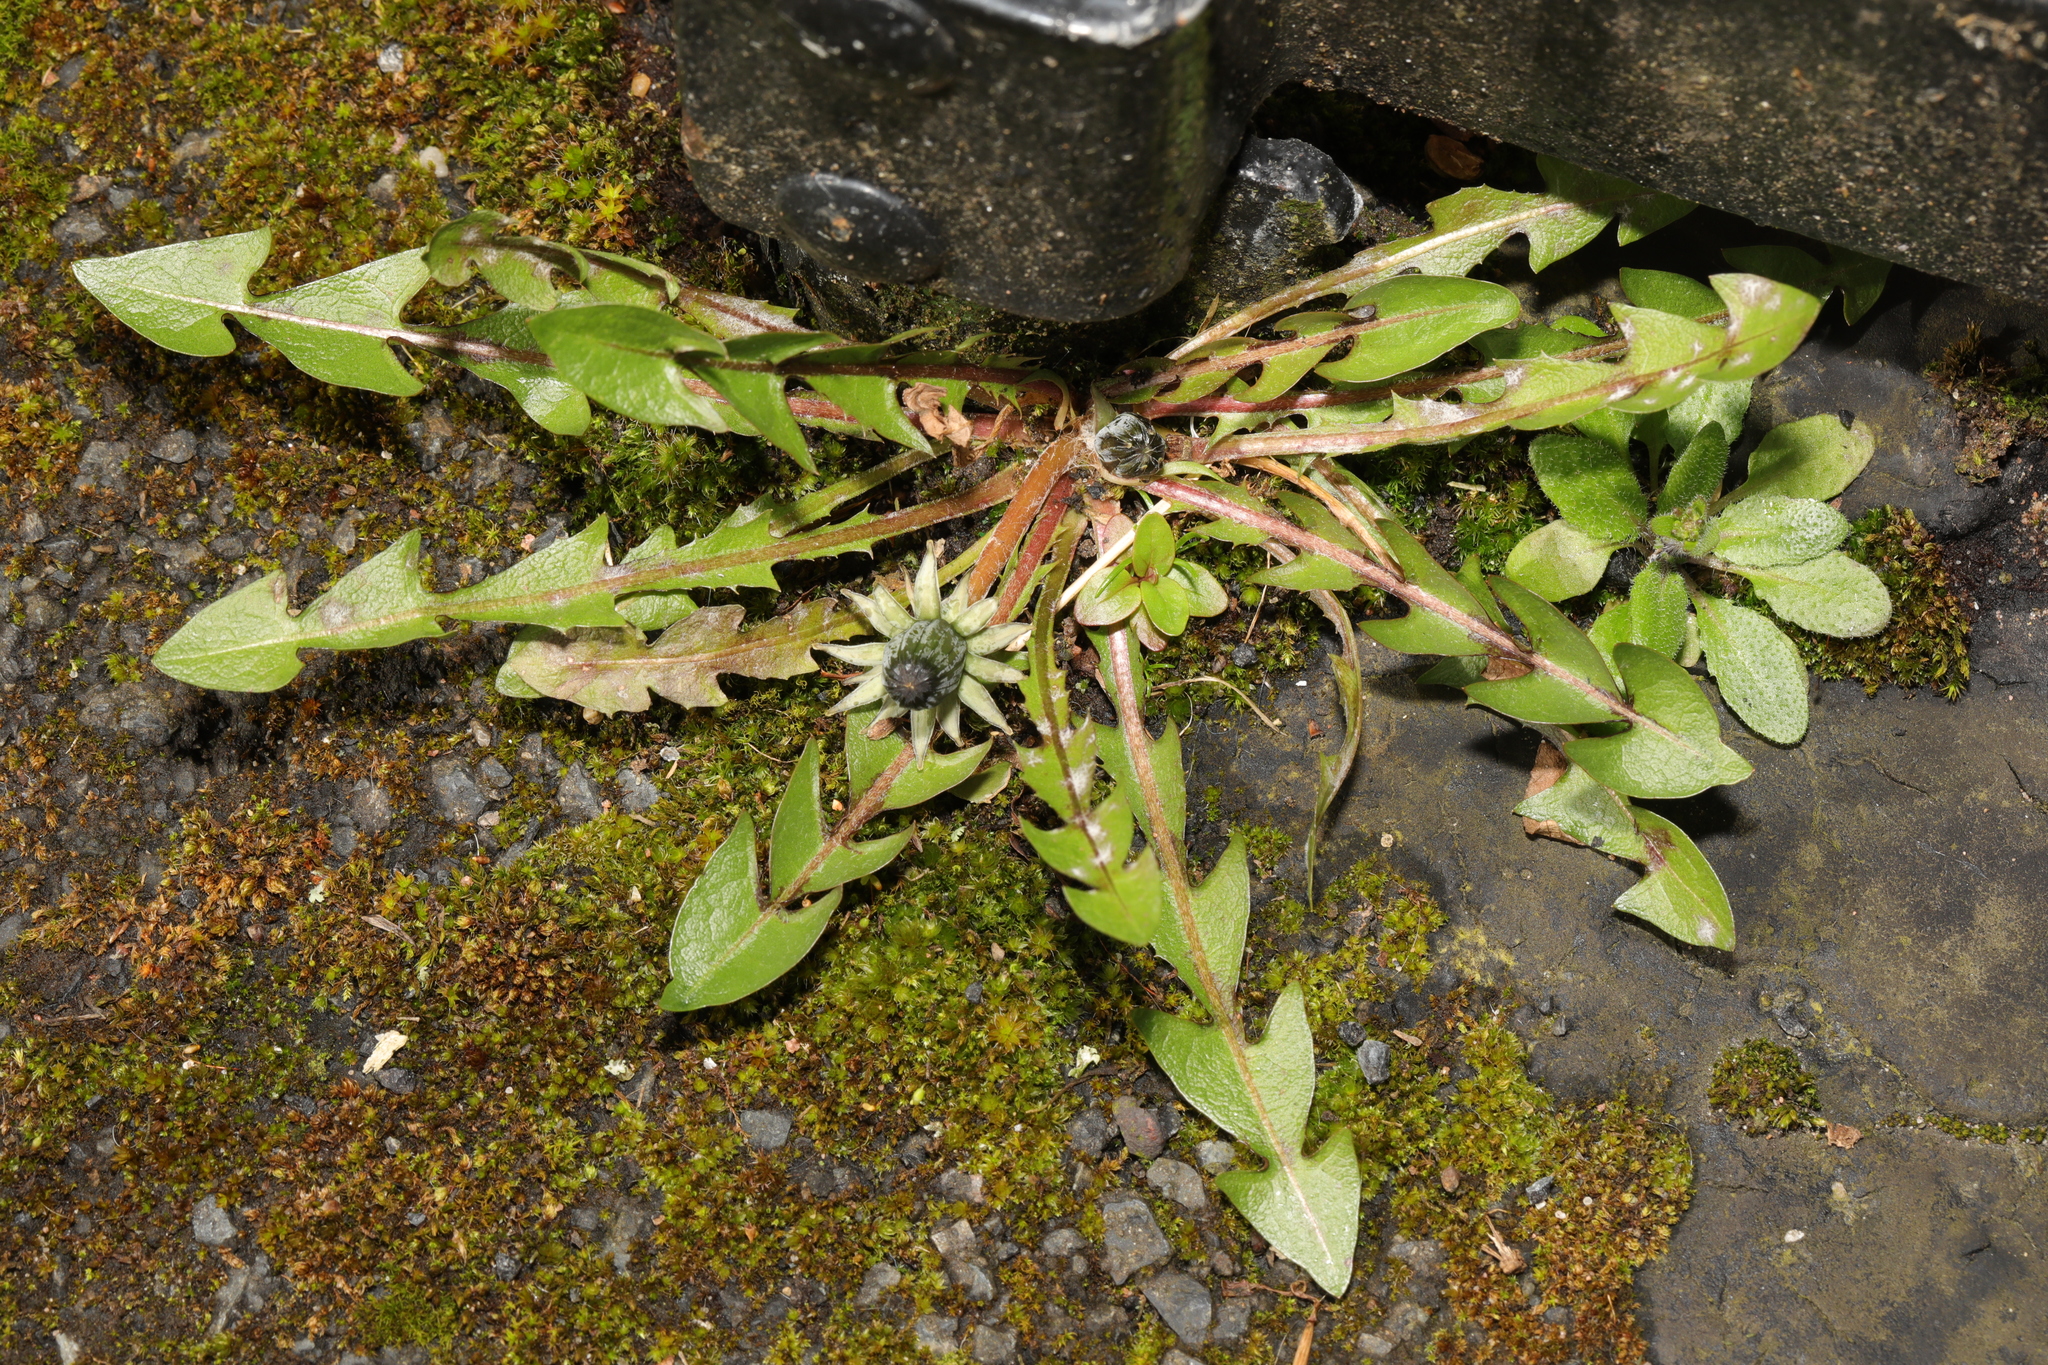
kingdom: Plantae
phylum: Tracheophyta
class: Magnoliopsida
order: Asterales
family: Asteraceae
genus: Taraxacum
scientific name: Taraxacum officinale
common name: Common dandelion
